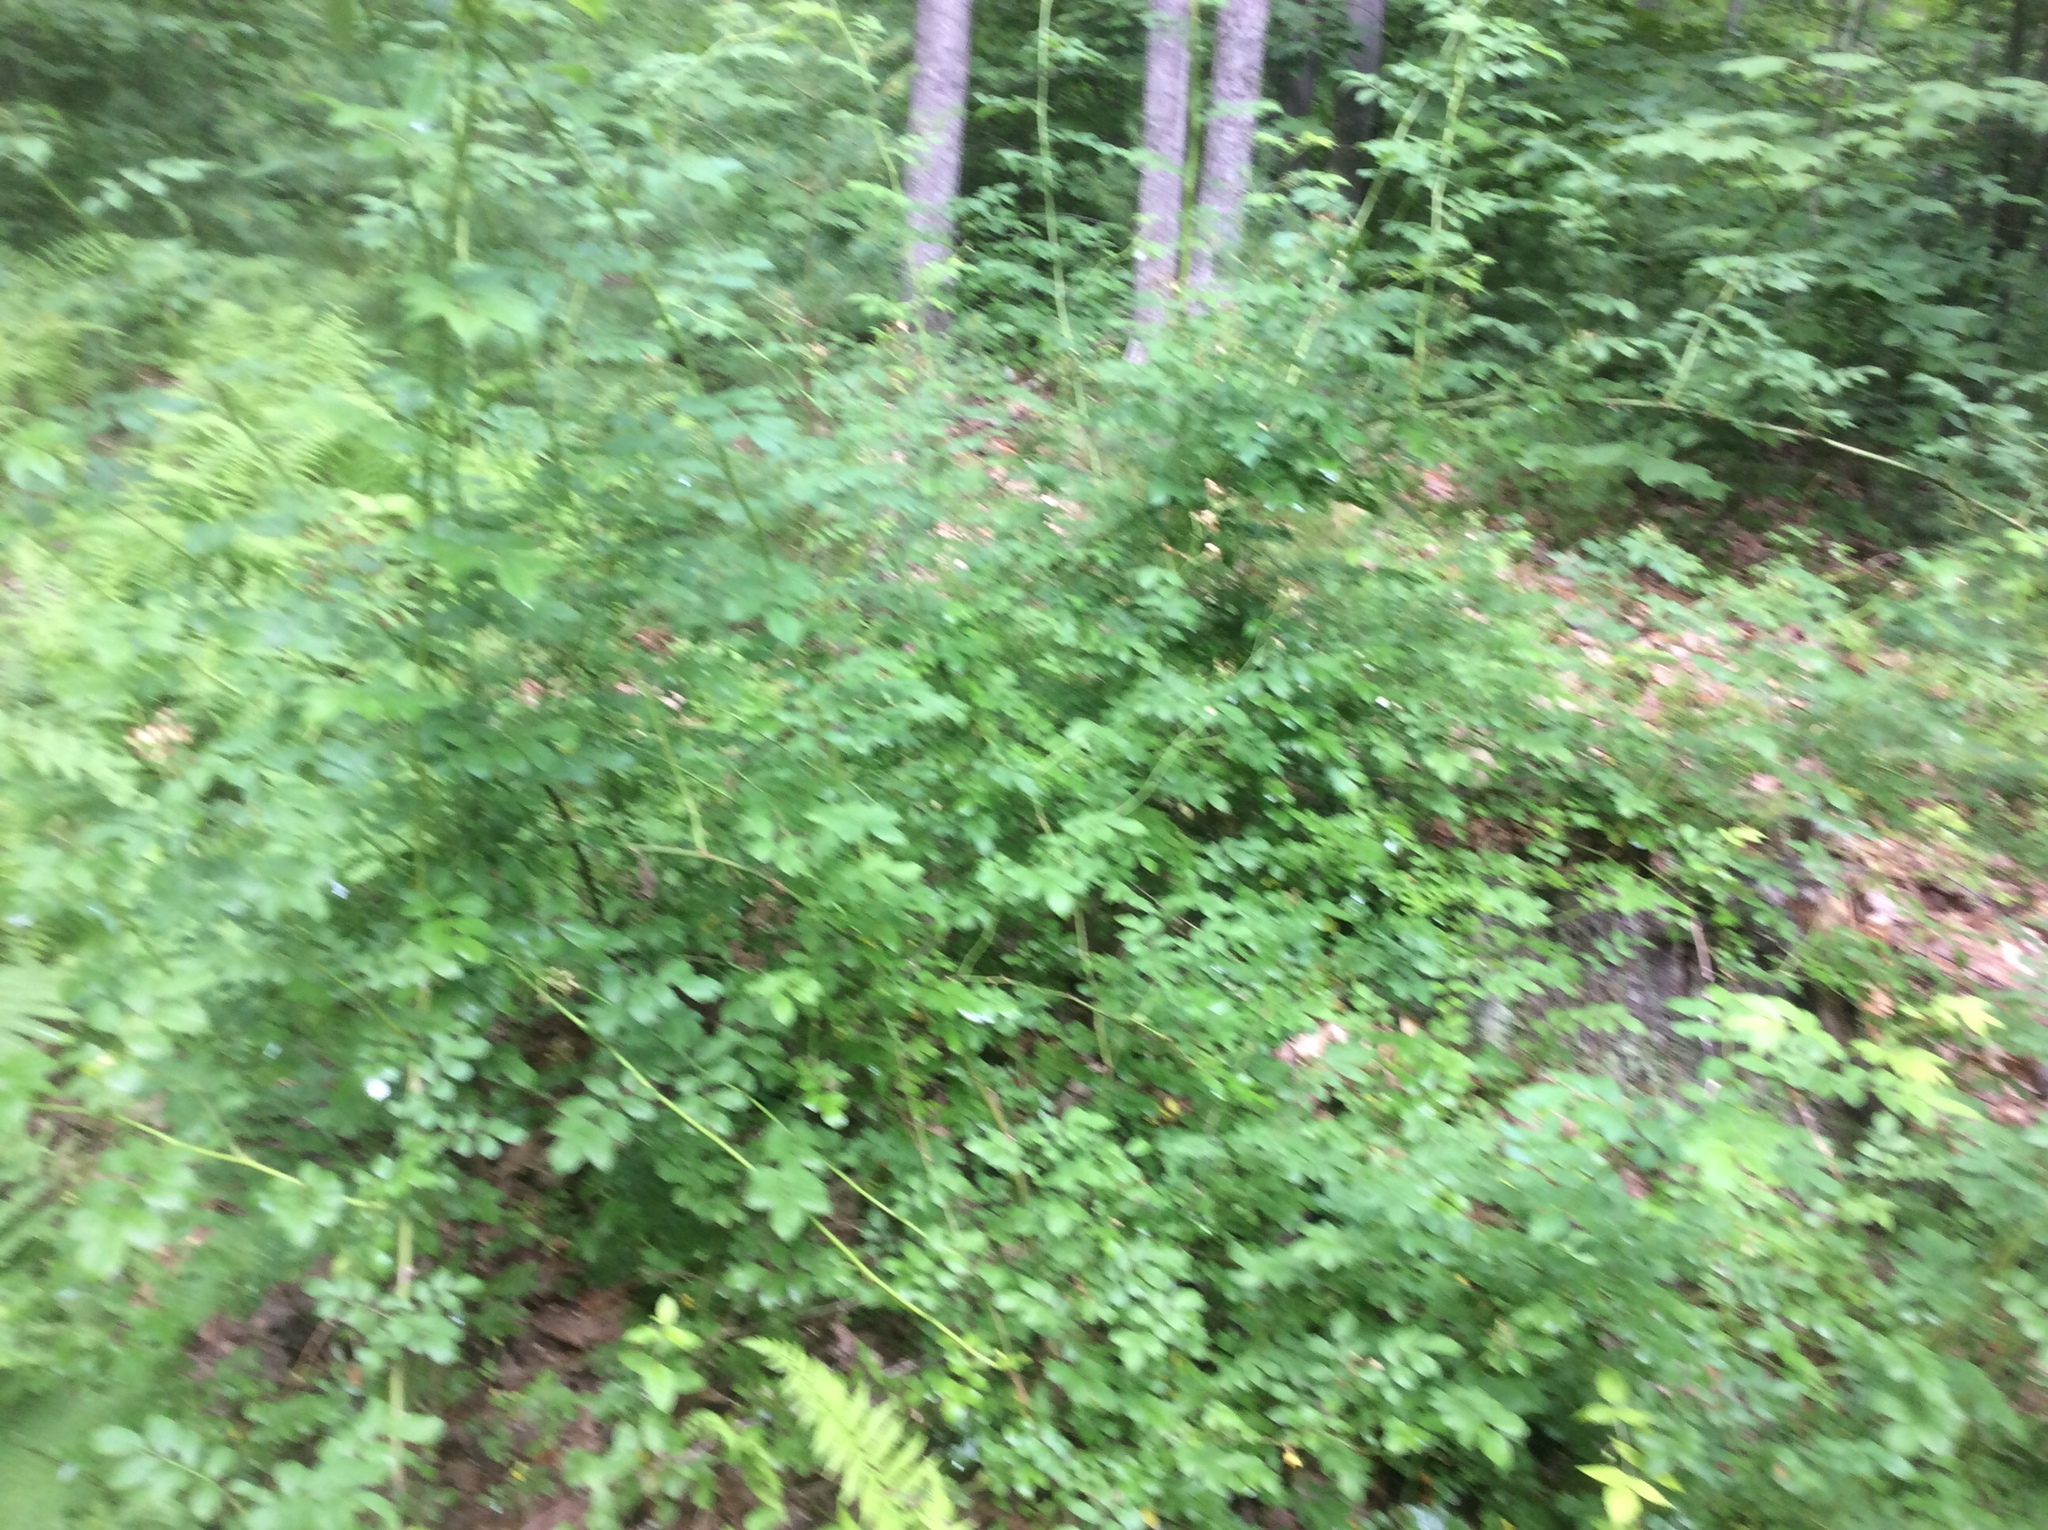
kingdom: Plantae
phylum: Tracheophyta
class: Magnoliopsida
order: Rosales
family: Rosaceae
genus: Rosa
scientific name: Rosa multiflora
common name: Multiflora rose
